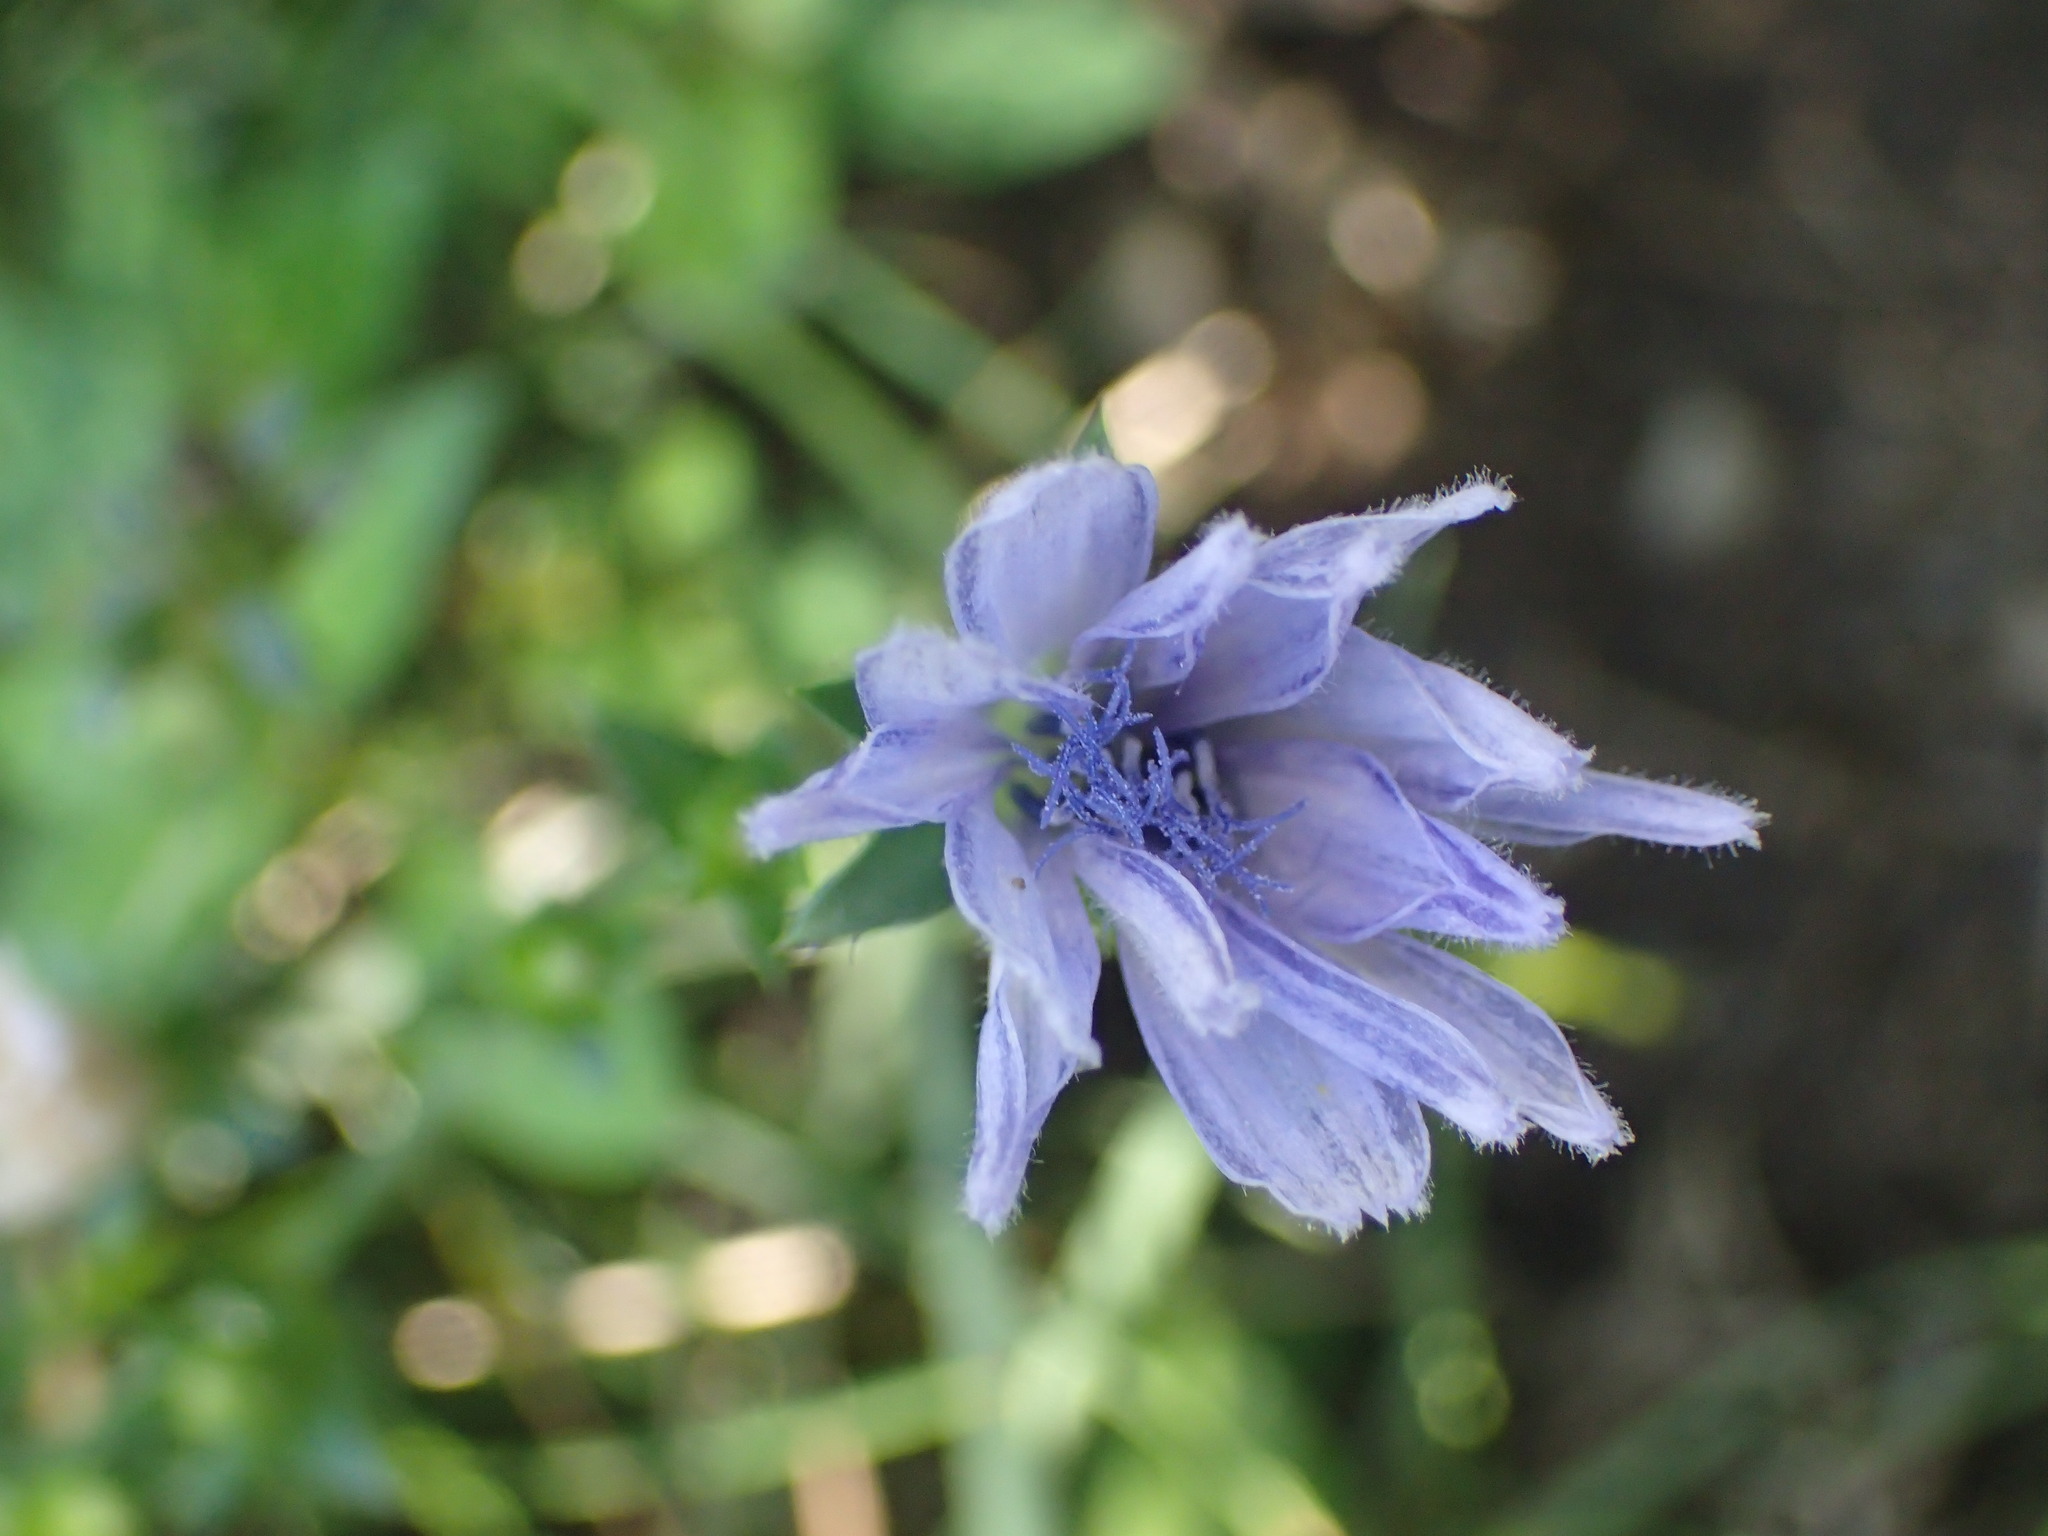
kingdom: Plantae
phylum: Tracheophyta
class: Magnoliopsida
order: Asterales
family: Asteraceae
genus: Cichorium
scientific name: Cichorium intybus
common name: Chicory
